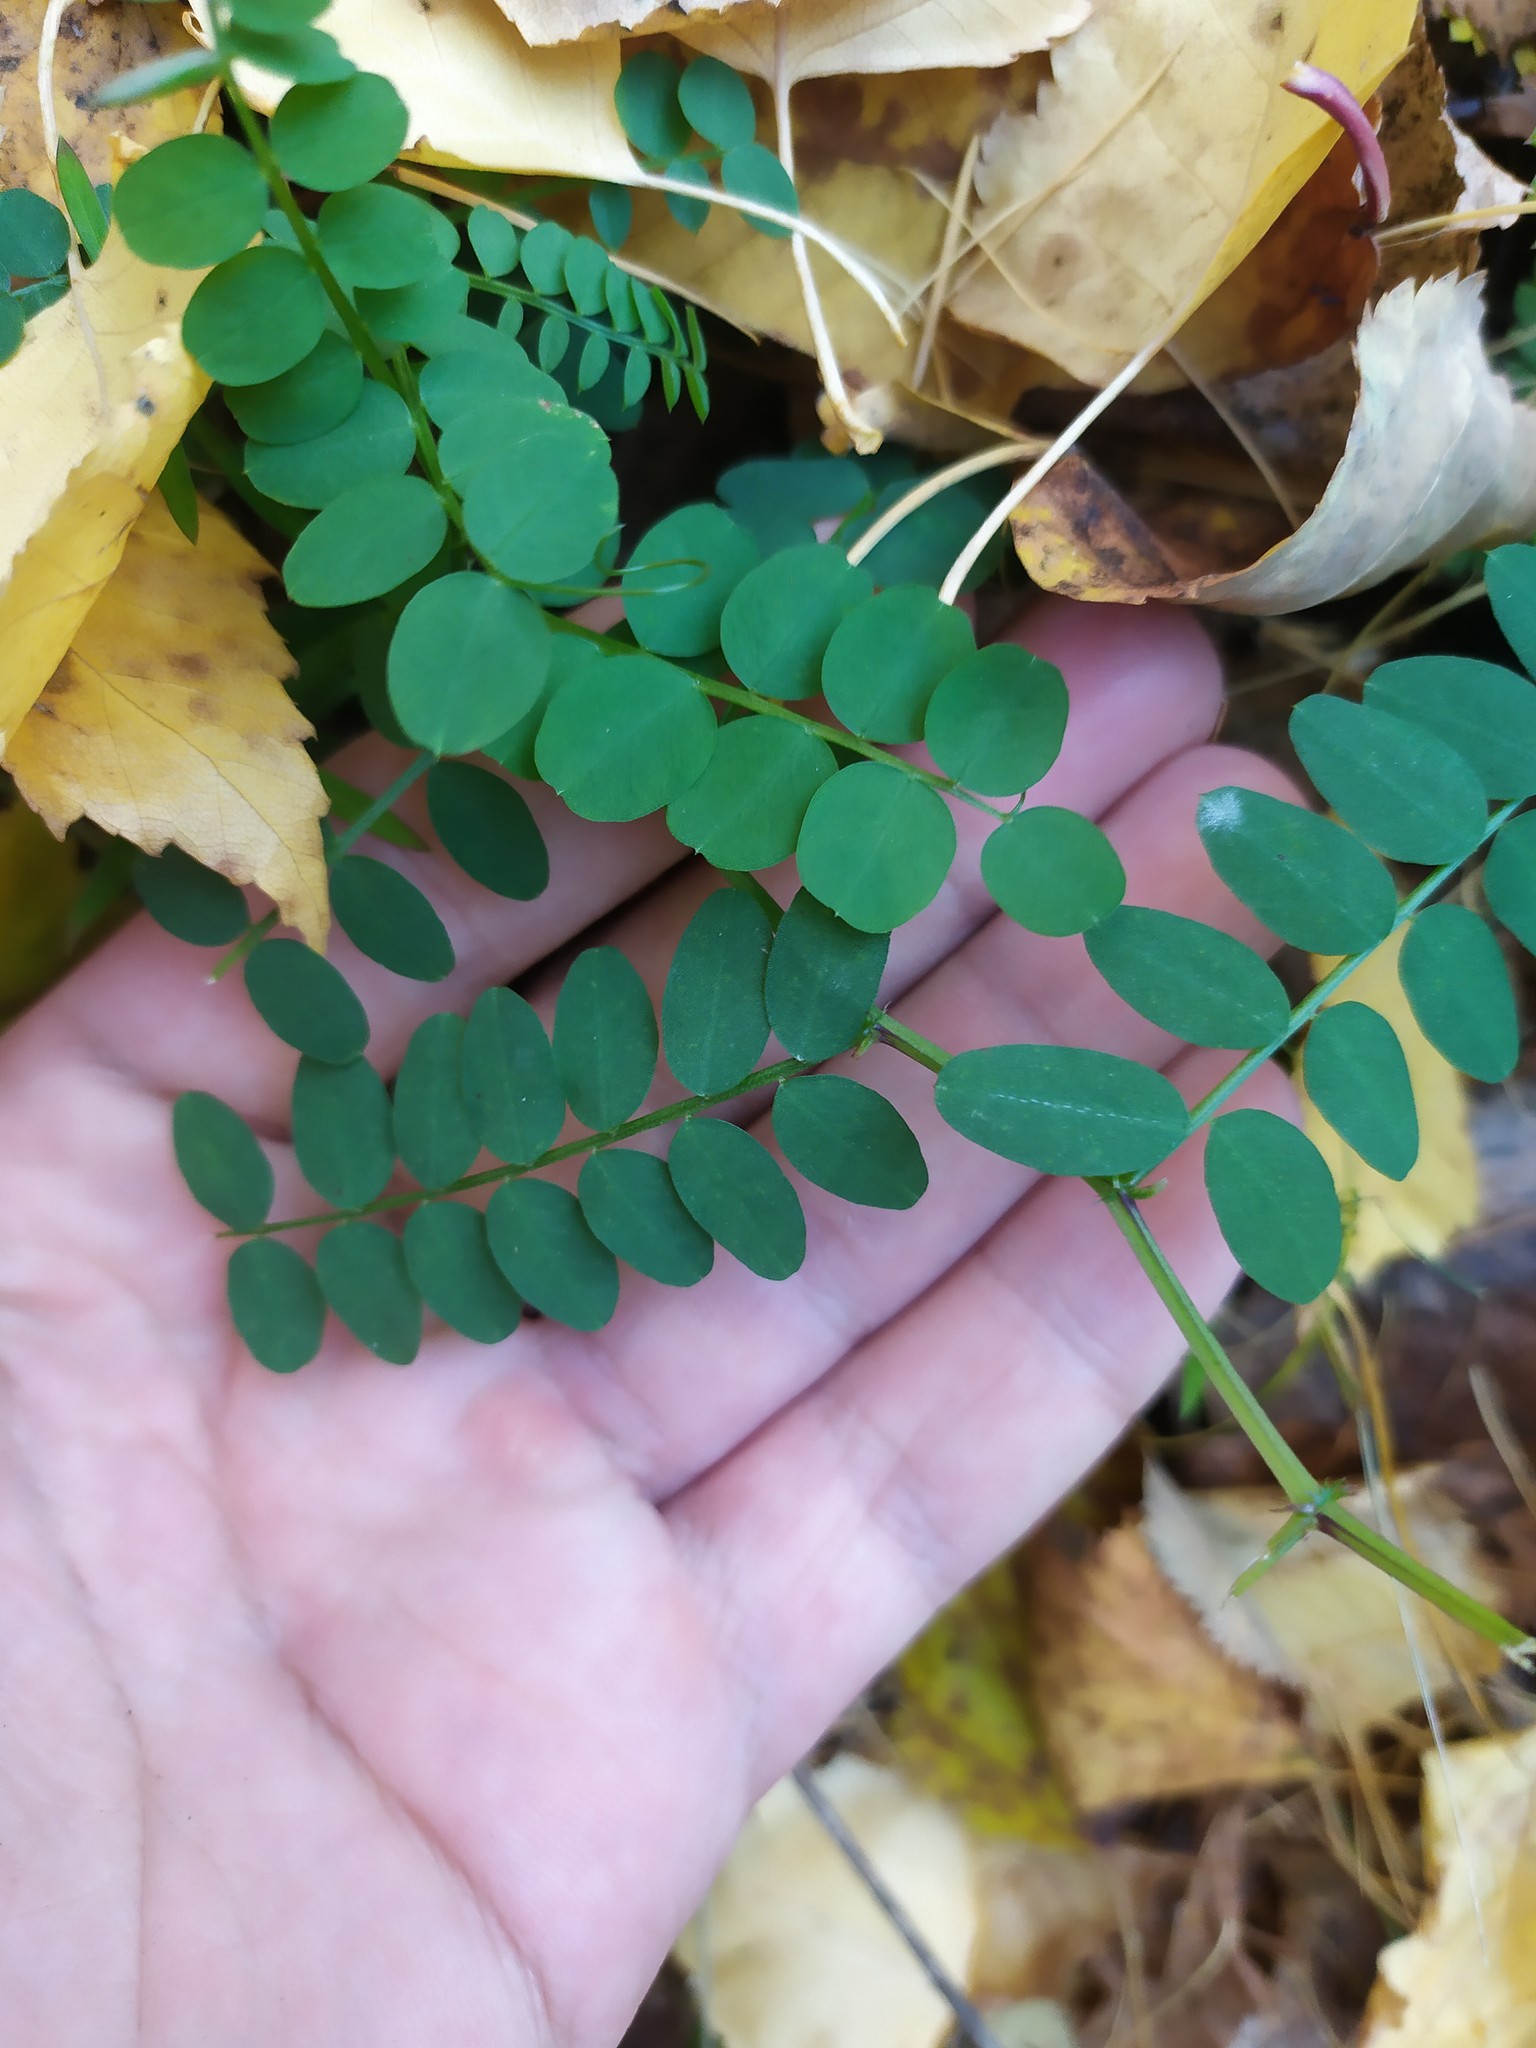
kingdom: Plantae
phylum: Tracheophyta
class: Magnoliopsida
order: Fabales
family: Fabaceae
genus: Vicia
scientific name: Vicia sylvatica
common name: Wood vetch
